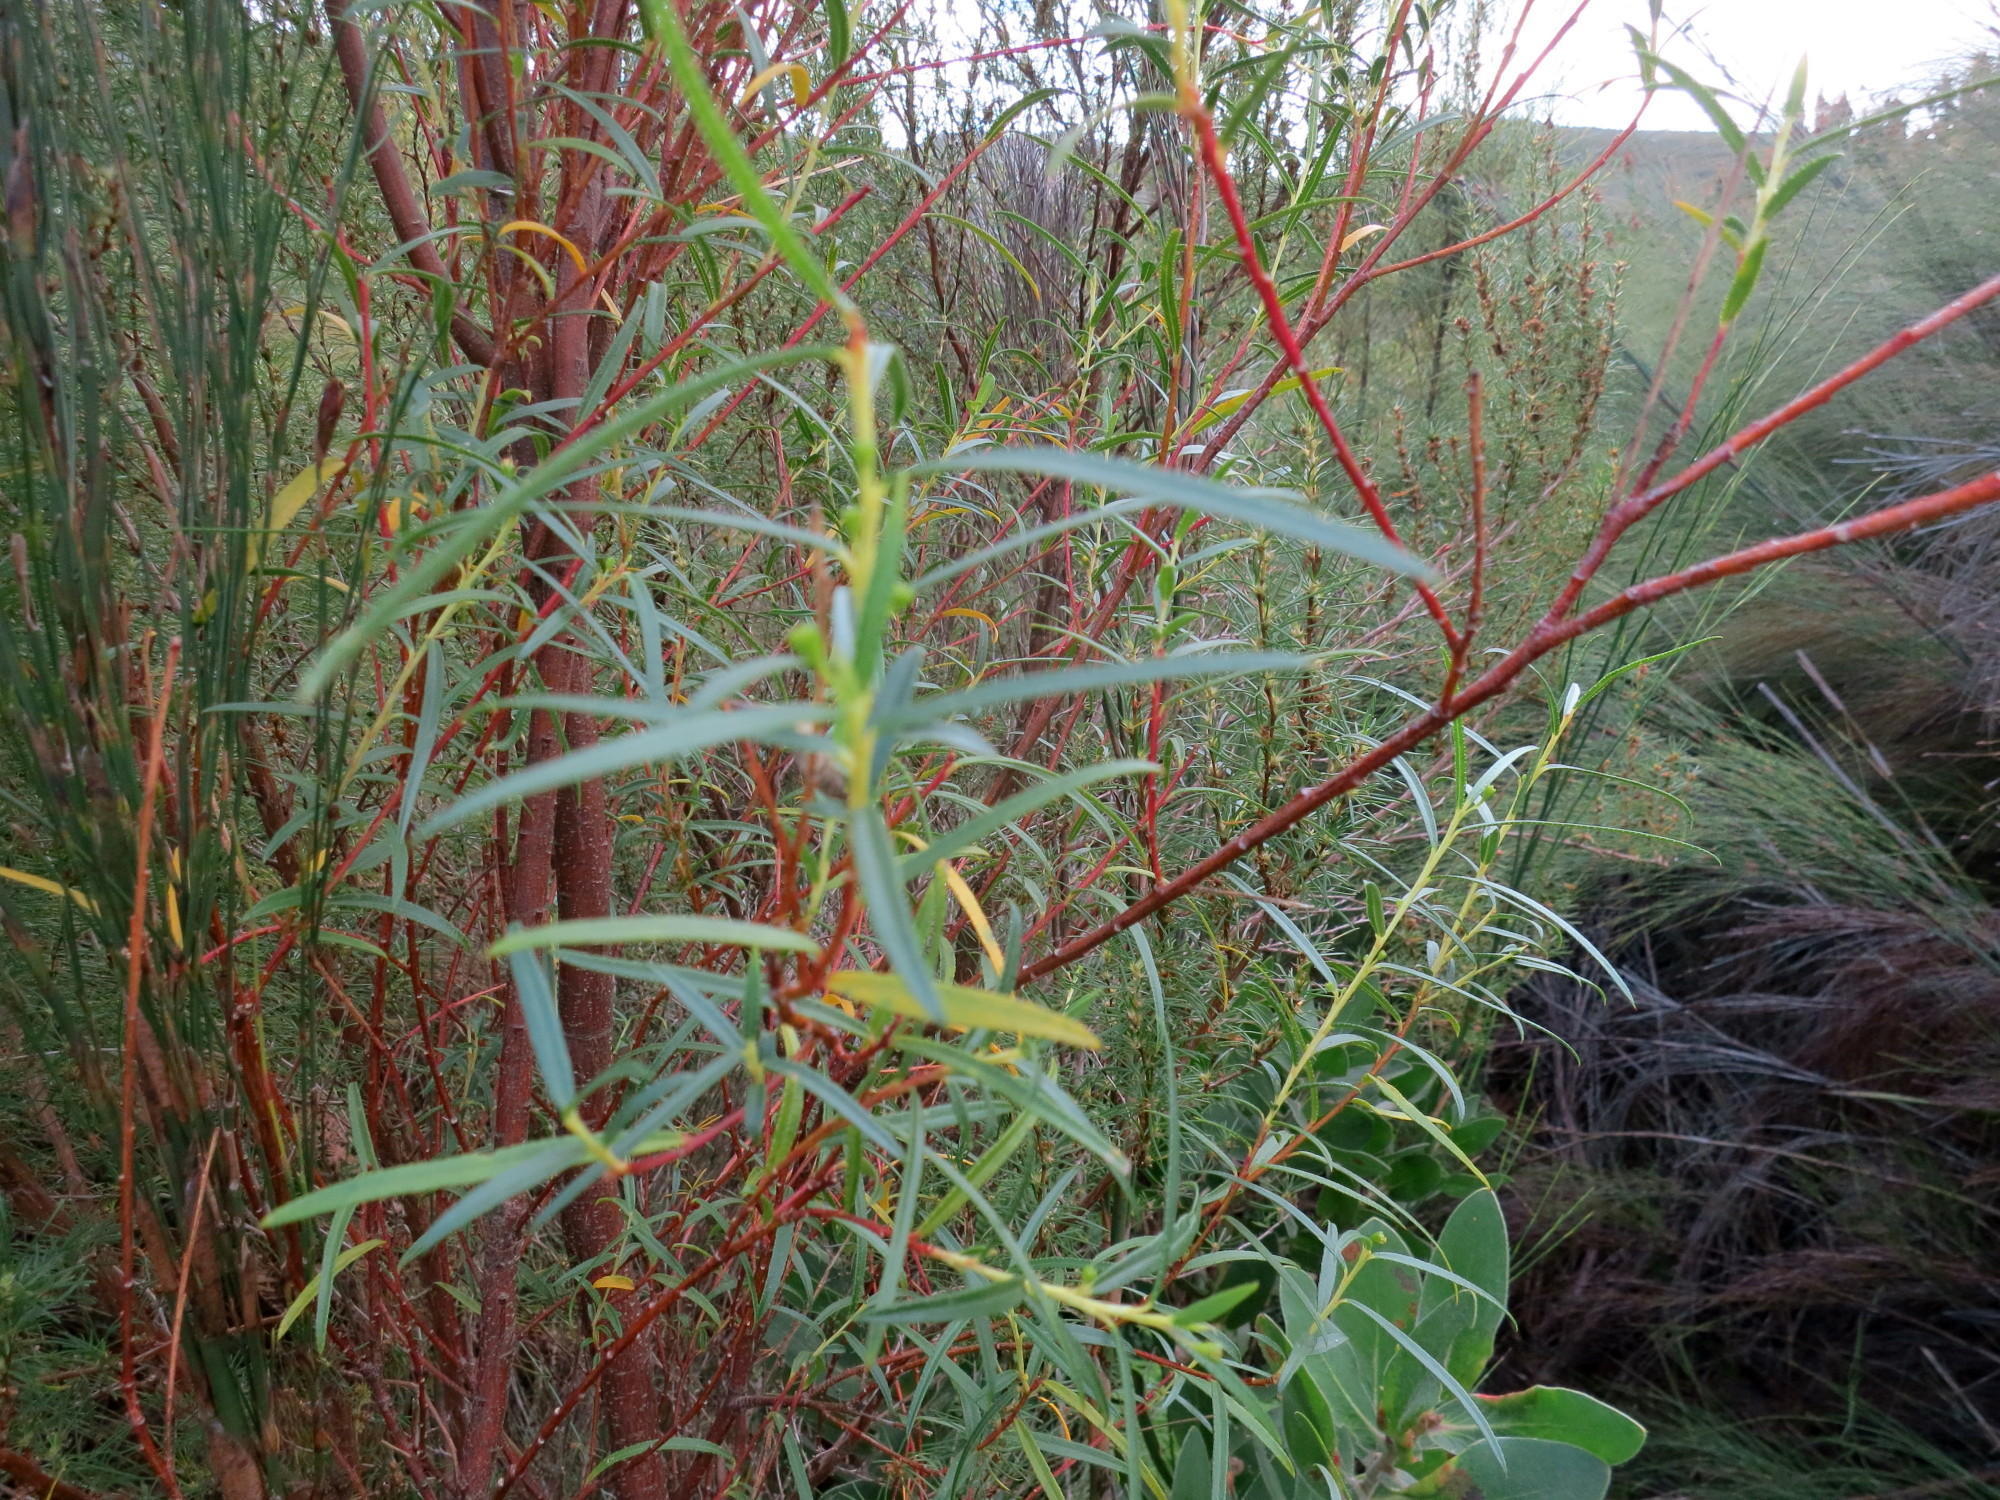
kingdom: Plantae
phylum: Tracheophyta
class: Magnoliopsida
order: Sapindales
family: Rutaceae
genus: Empleurum
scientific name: Empleurum unicapsulare
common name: False buchu
